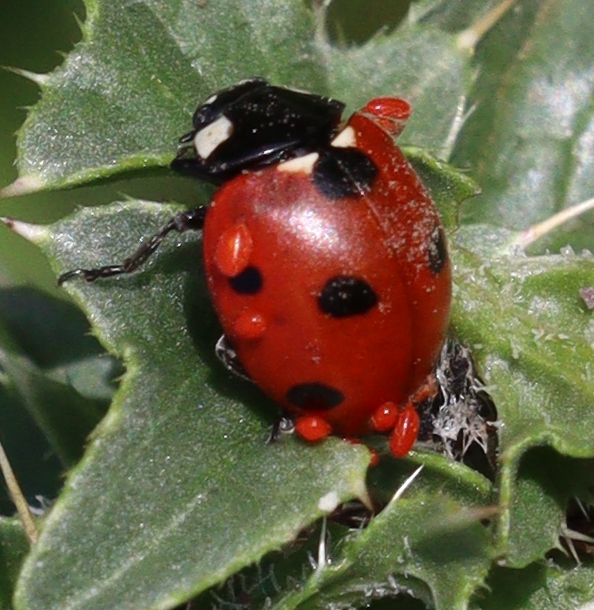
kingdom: Animalia
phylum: Arthropoda
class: Insecta
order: Coleoptera
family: Coccinellidae
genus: Coccinella
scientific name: Coccinella septempunctata
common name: Sevenspotted lady beetle
